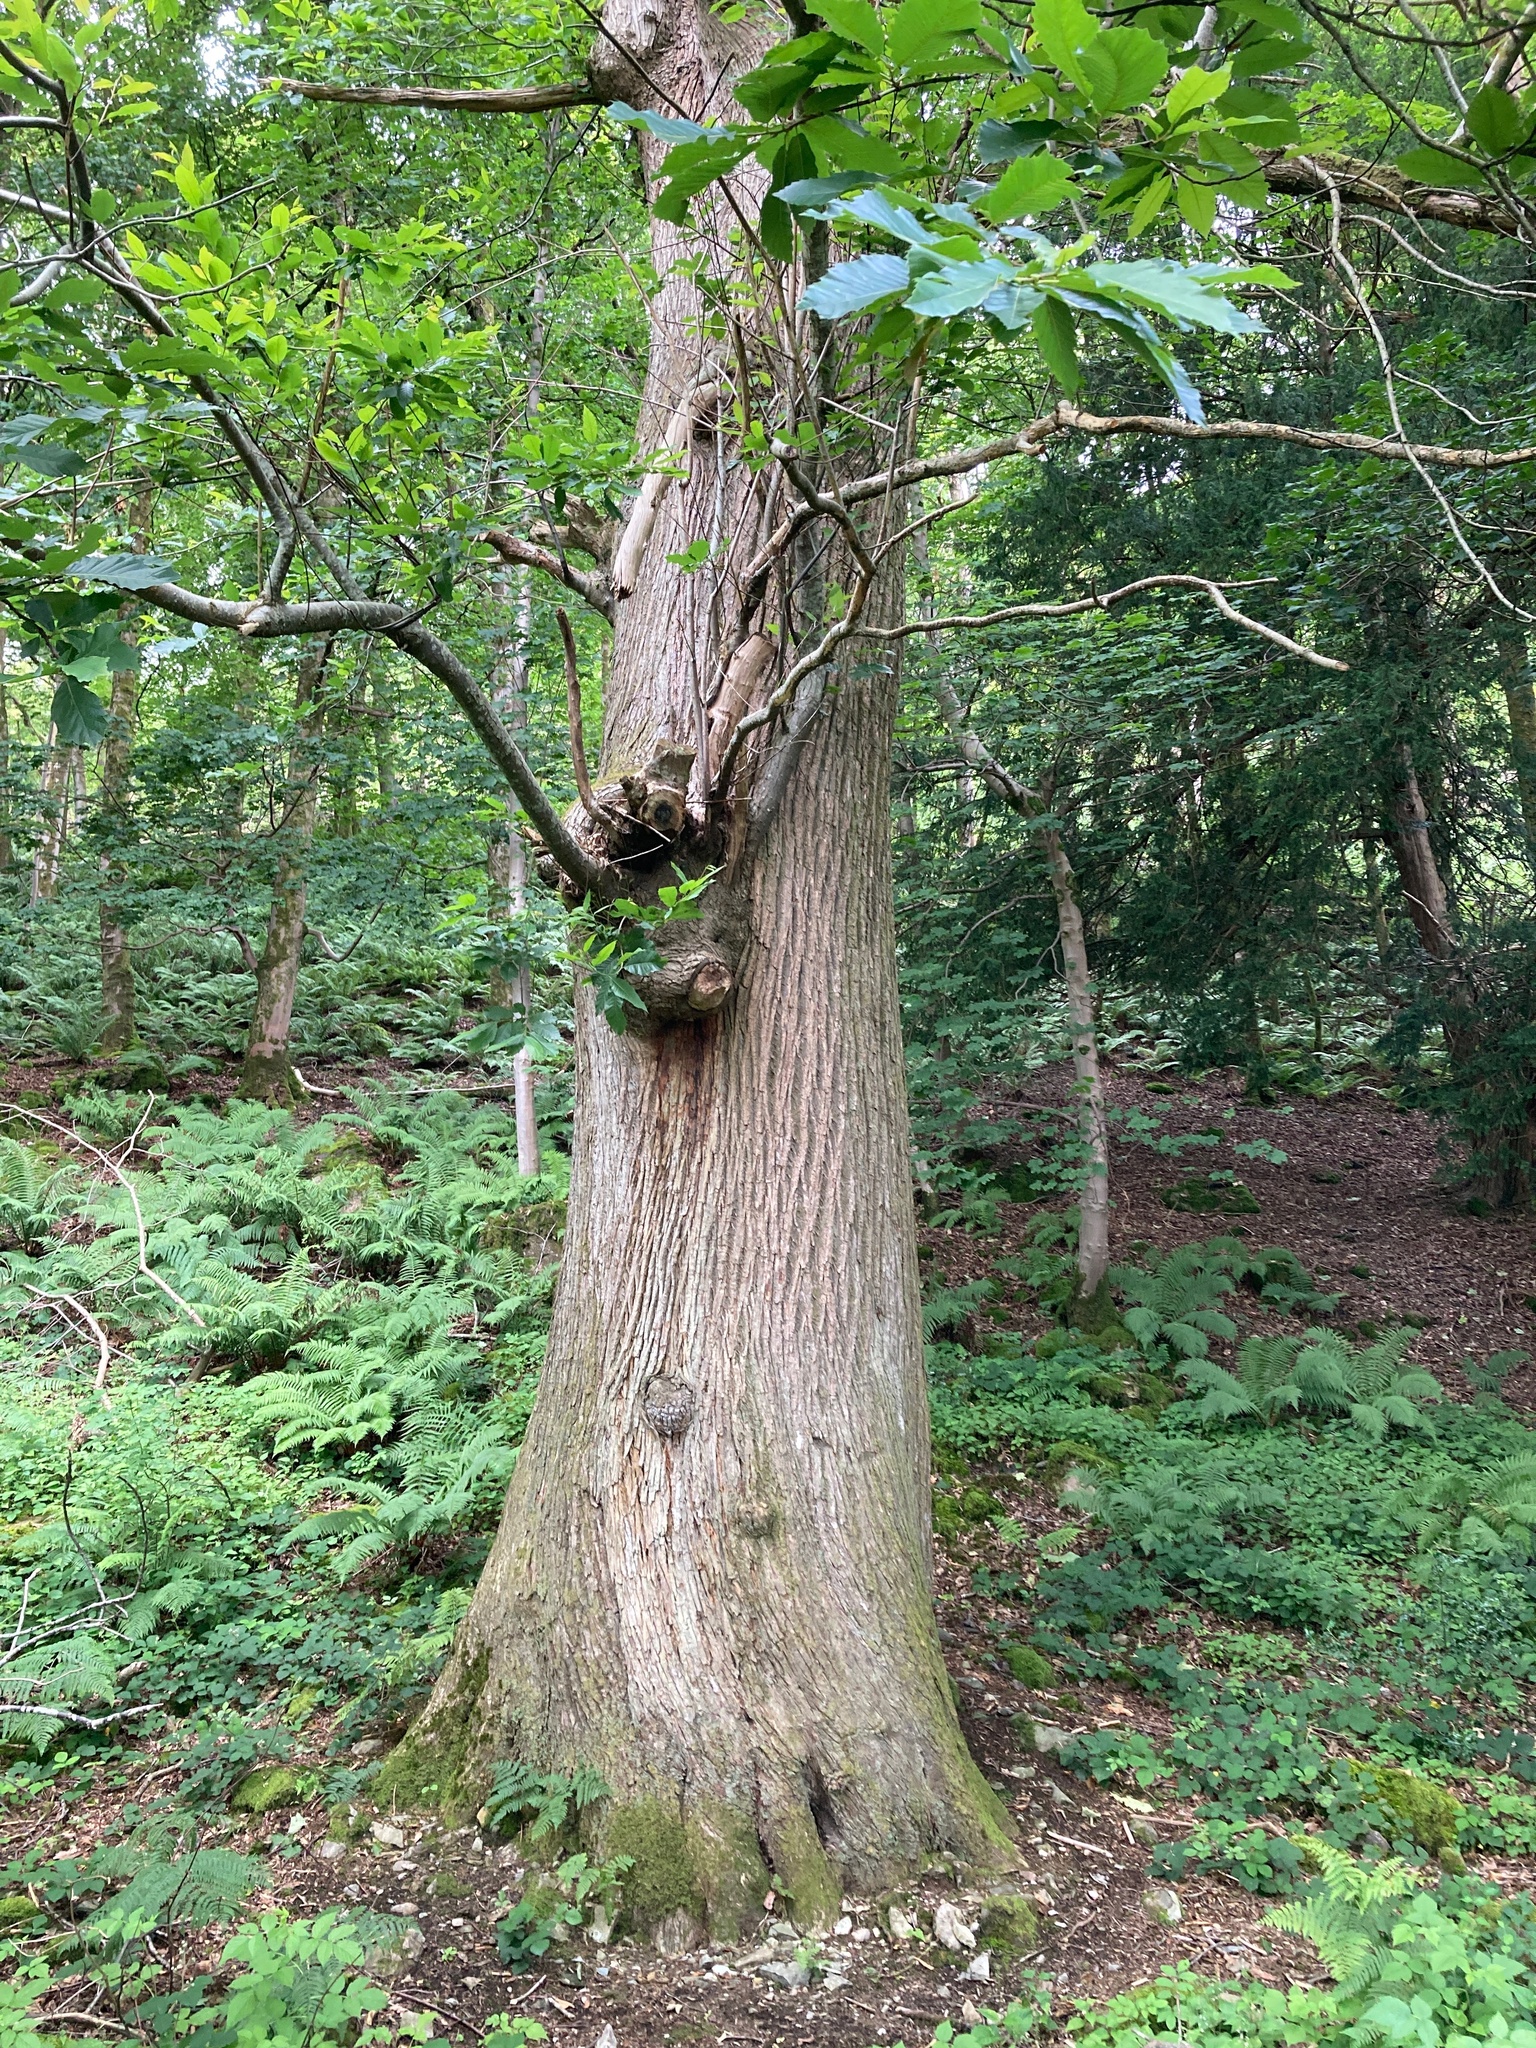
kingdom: Plantae
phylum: Tracheophyta
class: Magnoliopsida
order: Fagales
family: Fagaceae
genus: Castanea
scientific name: Castanea sativa
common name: Sweet chestnut
